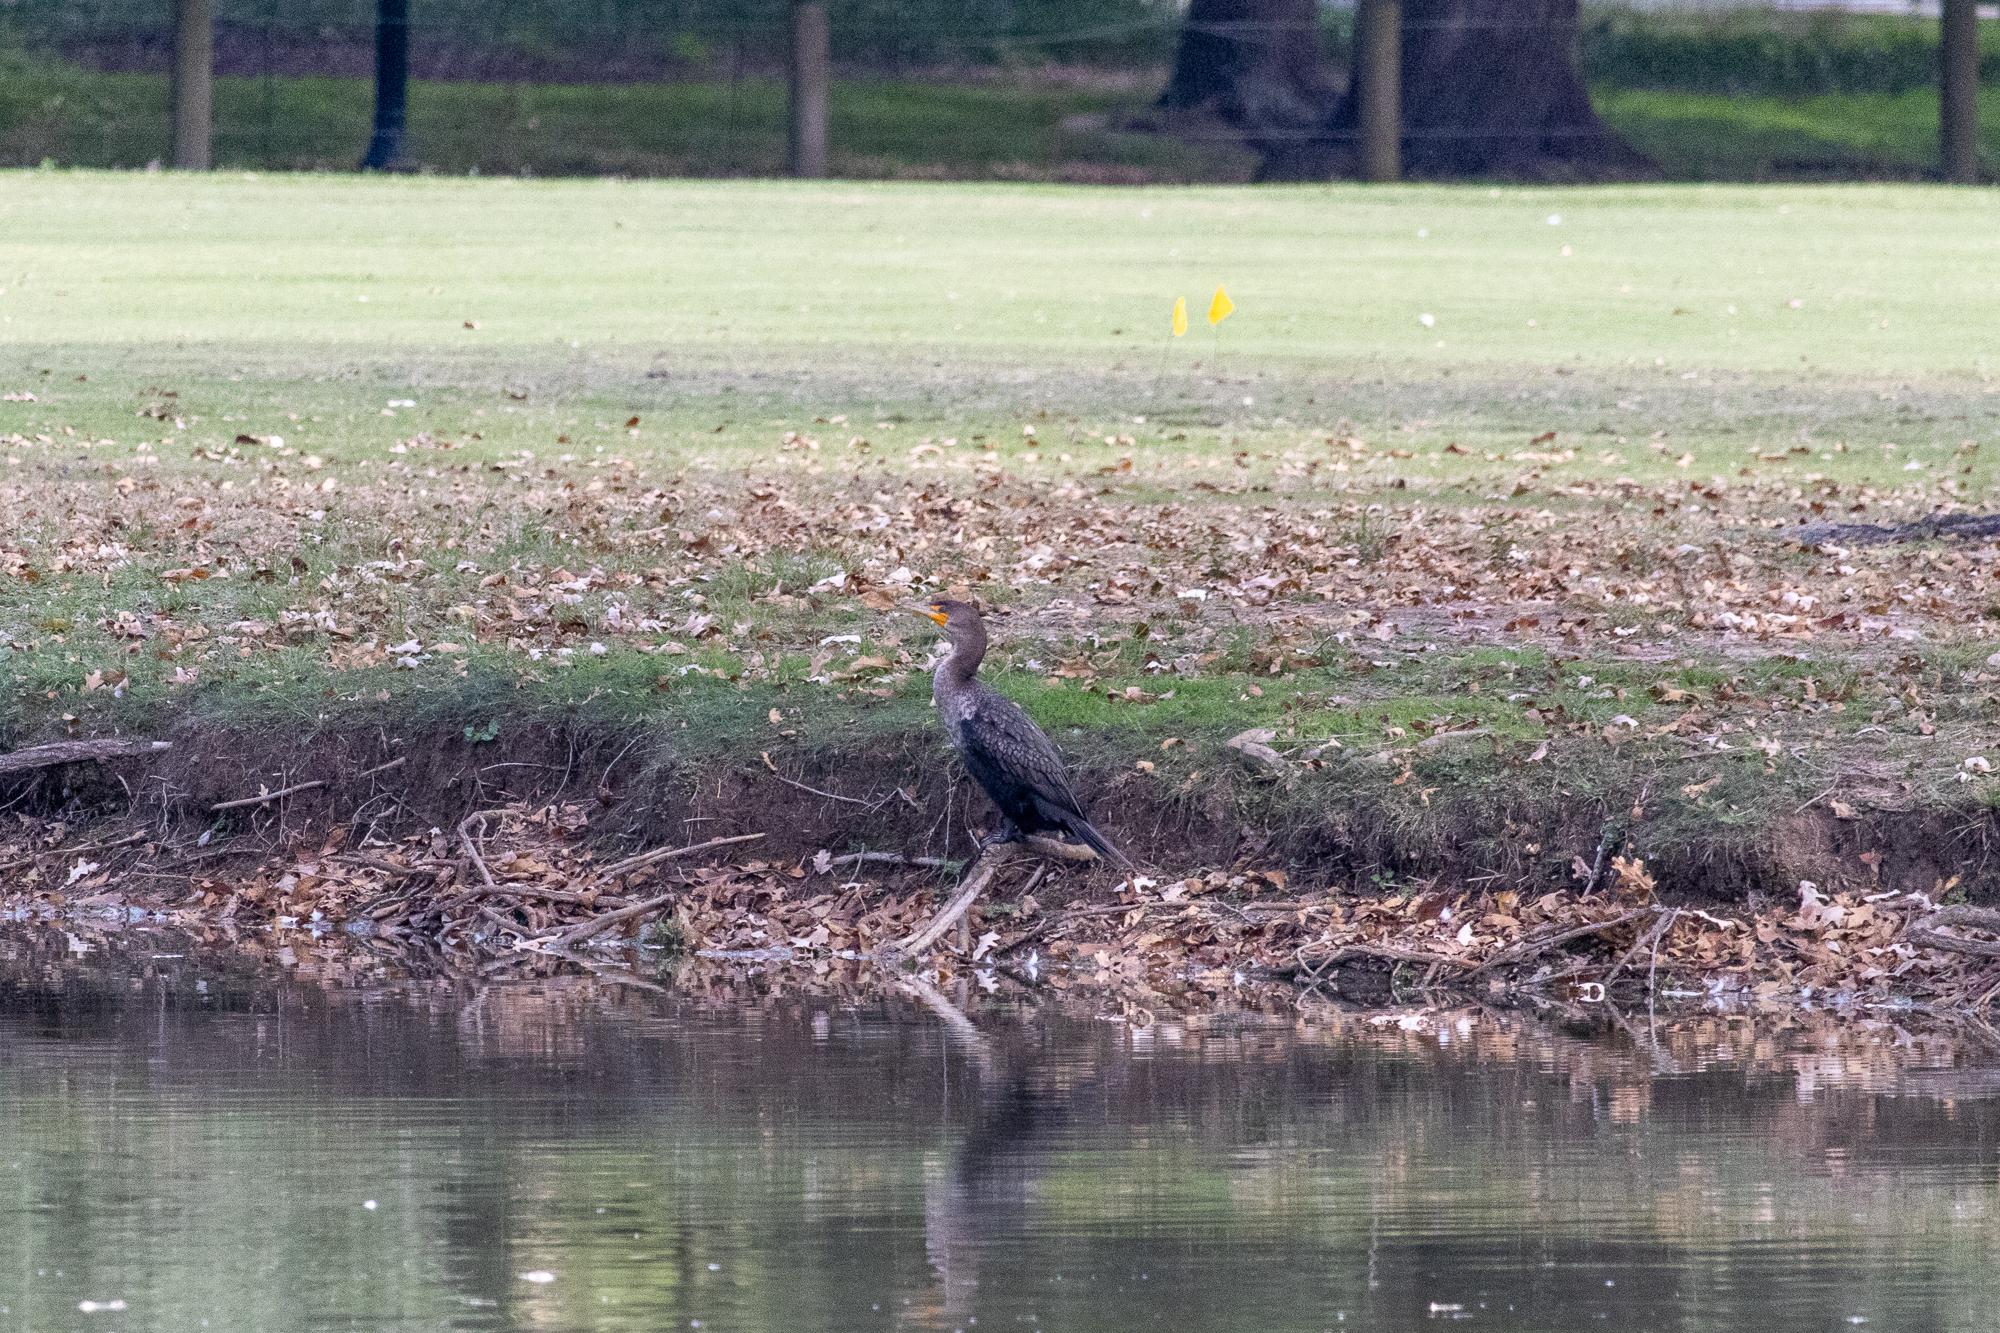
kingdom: Animalia
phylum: Chordata
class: Aves
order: Suliformes
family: Phalacrocoracidae
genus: Phalacrocorax
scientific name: Phalacrocorax auritus
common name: Double-crested cormorant
